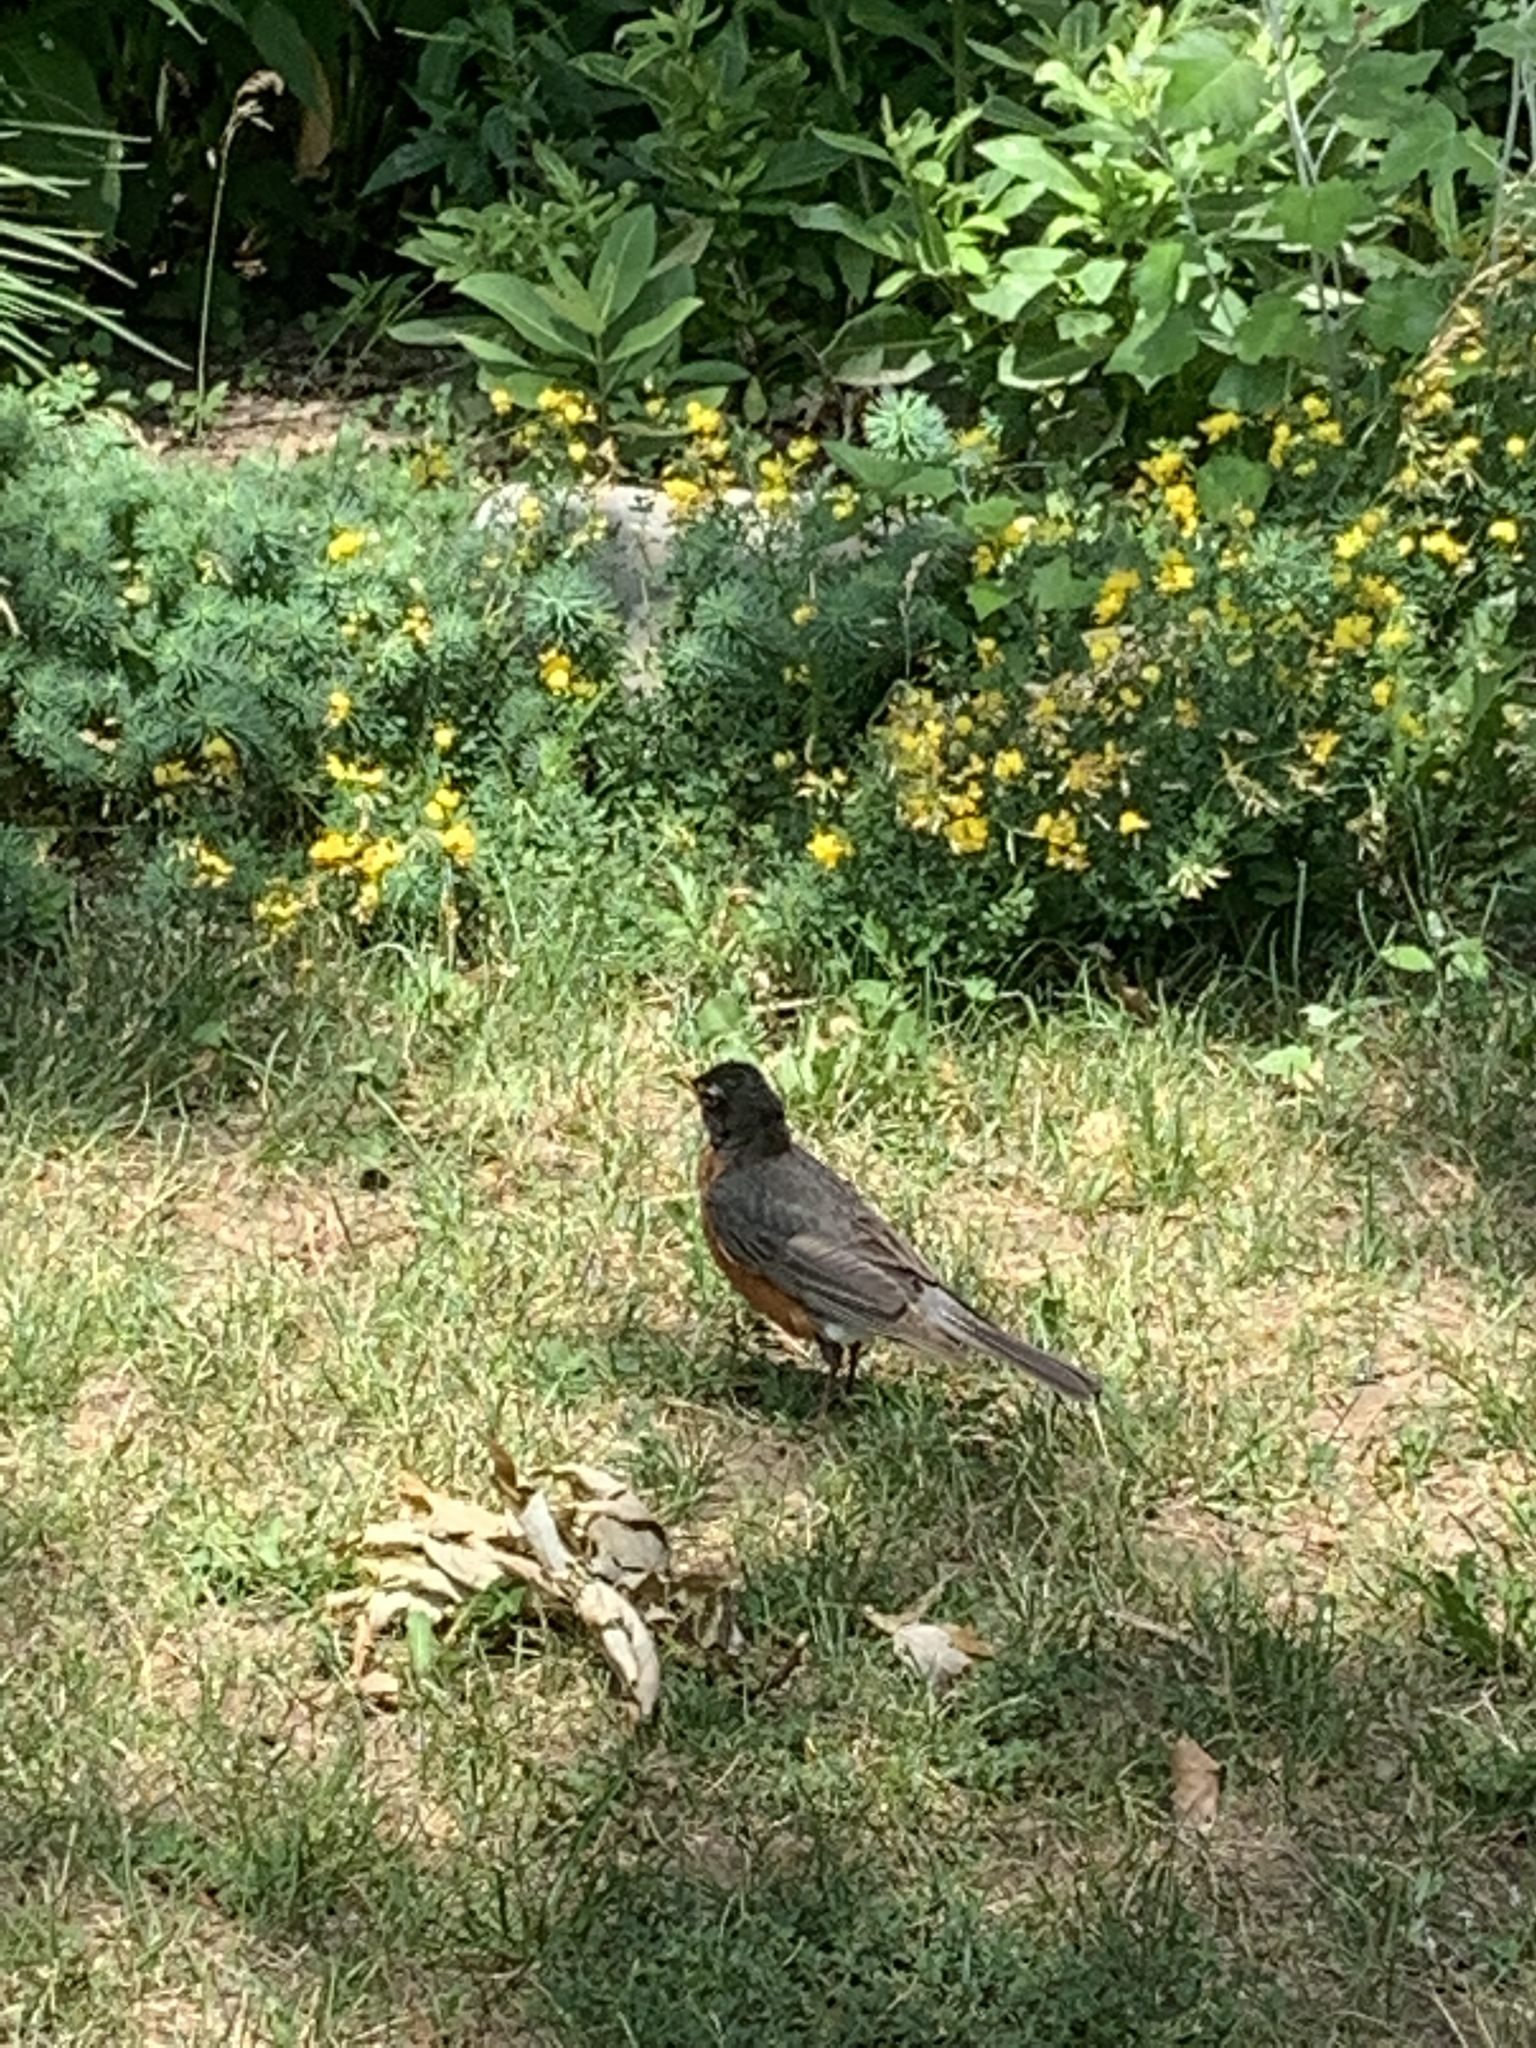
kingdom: Animalia
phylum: Chordata
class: Aves
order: Passeriformes
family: Turdidae
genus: Turdus
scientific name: Turdus migratorius
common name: American robin
